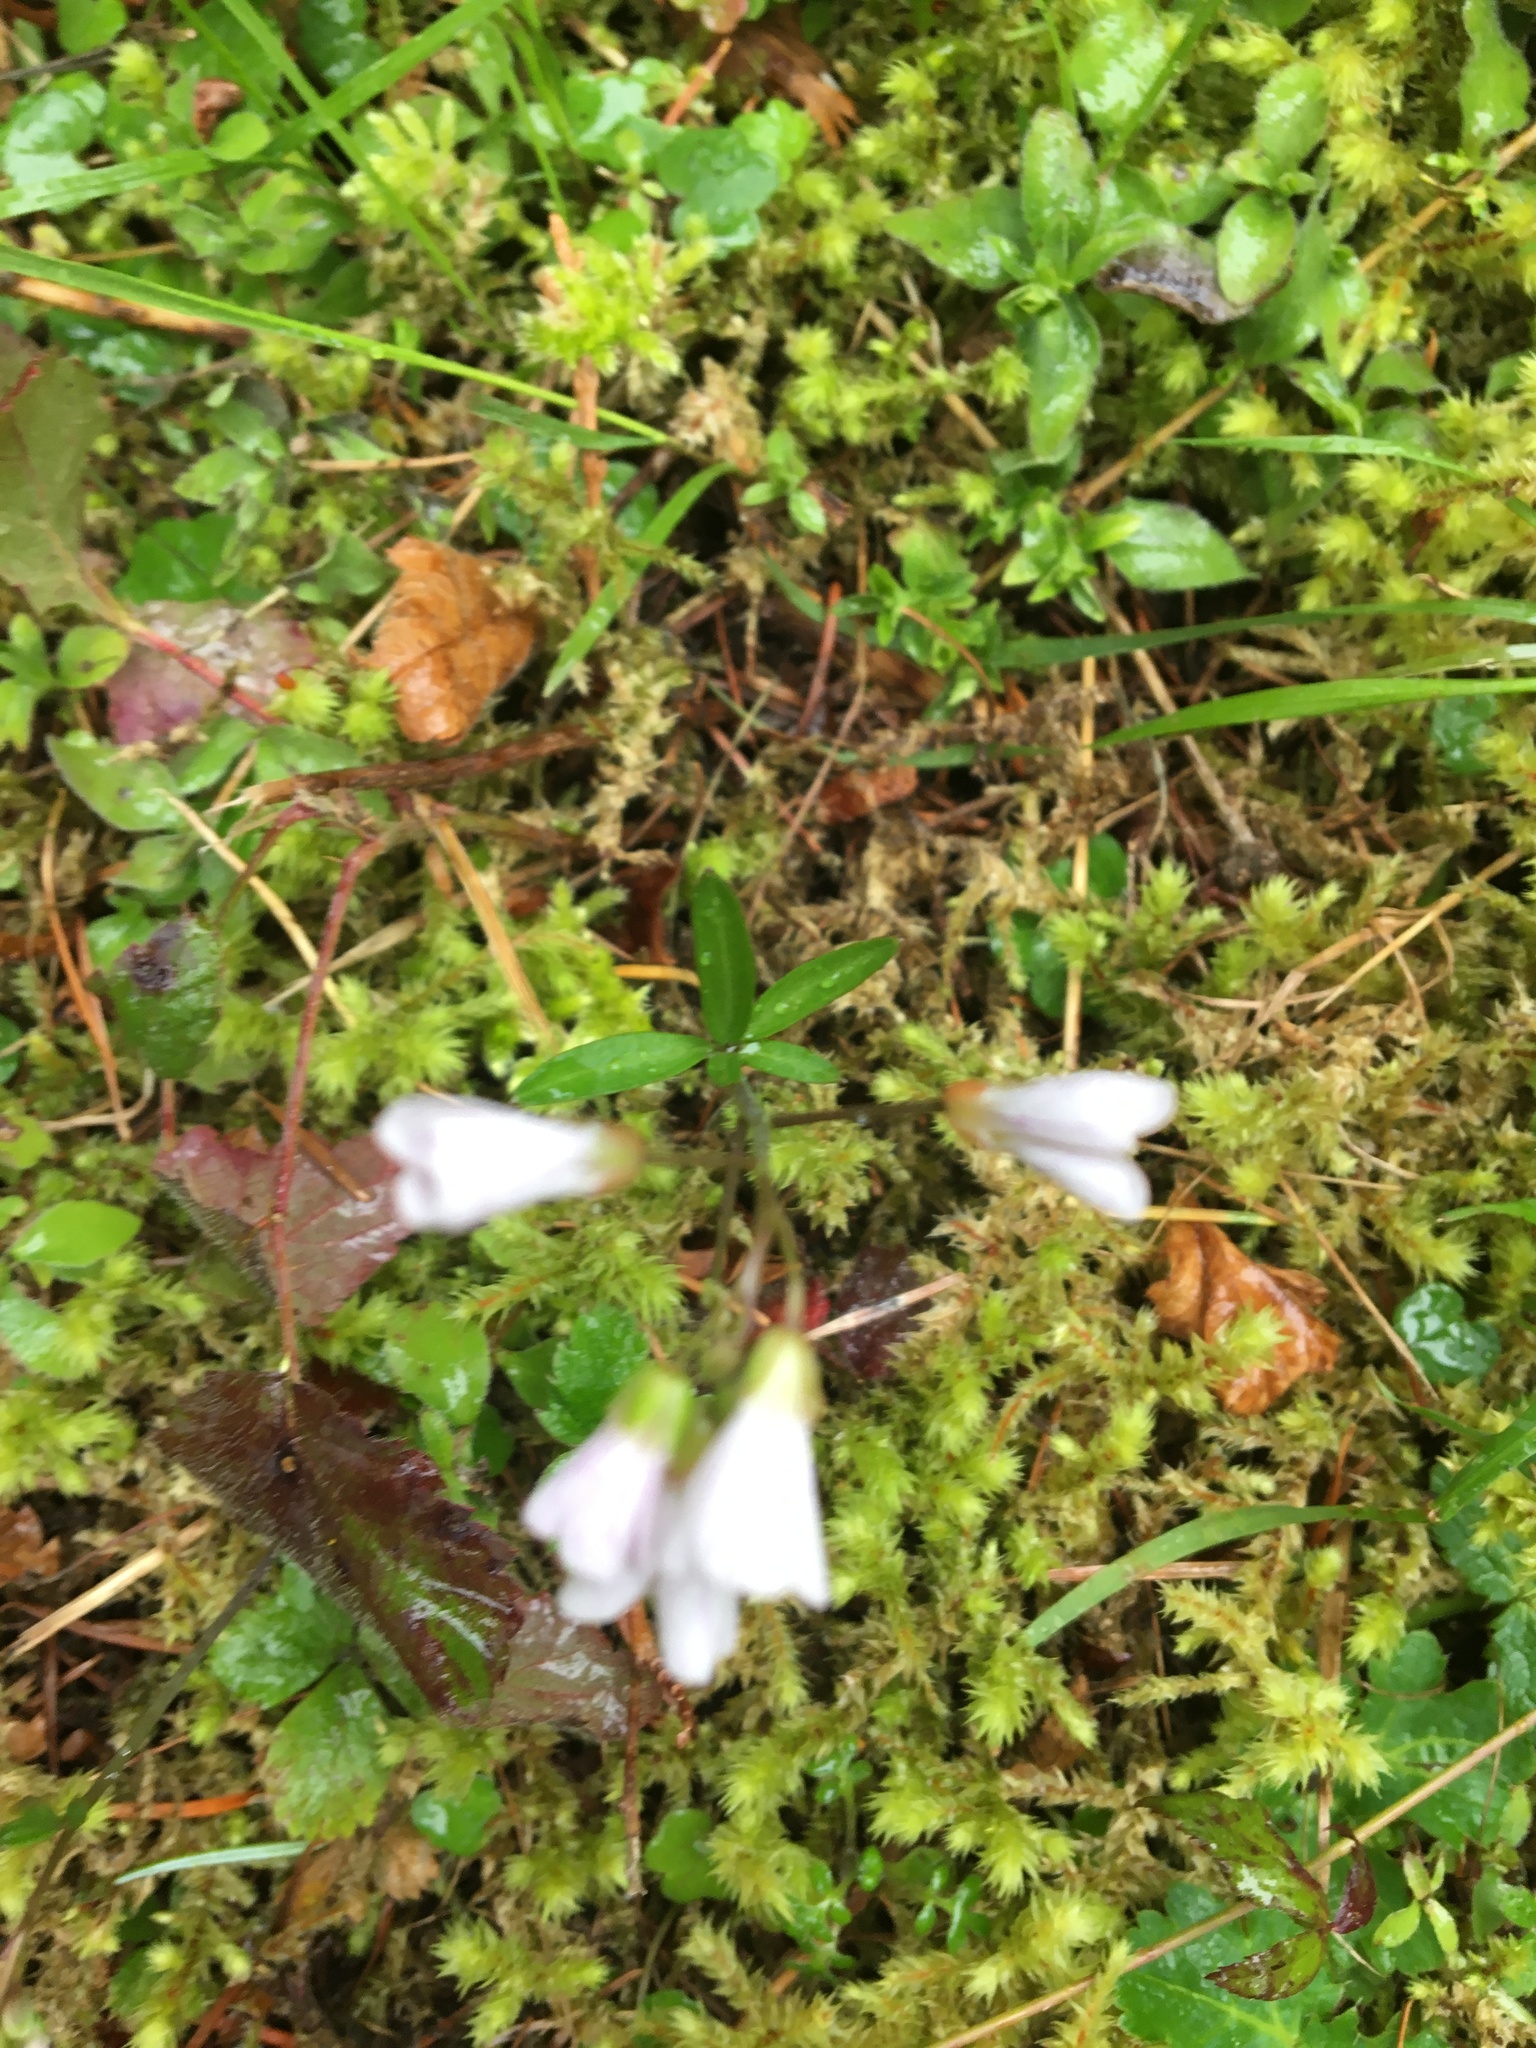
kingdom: Plantae
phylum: Tracheophyta
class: Magnoliopsida
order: Brassicales
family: Brassicaceae
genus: Cardamine
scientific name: Cardamine nuttallii
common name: Nuttall's toothwort
